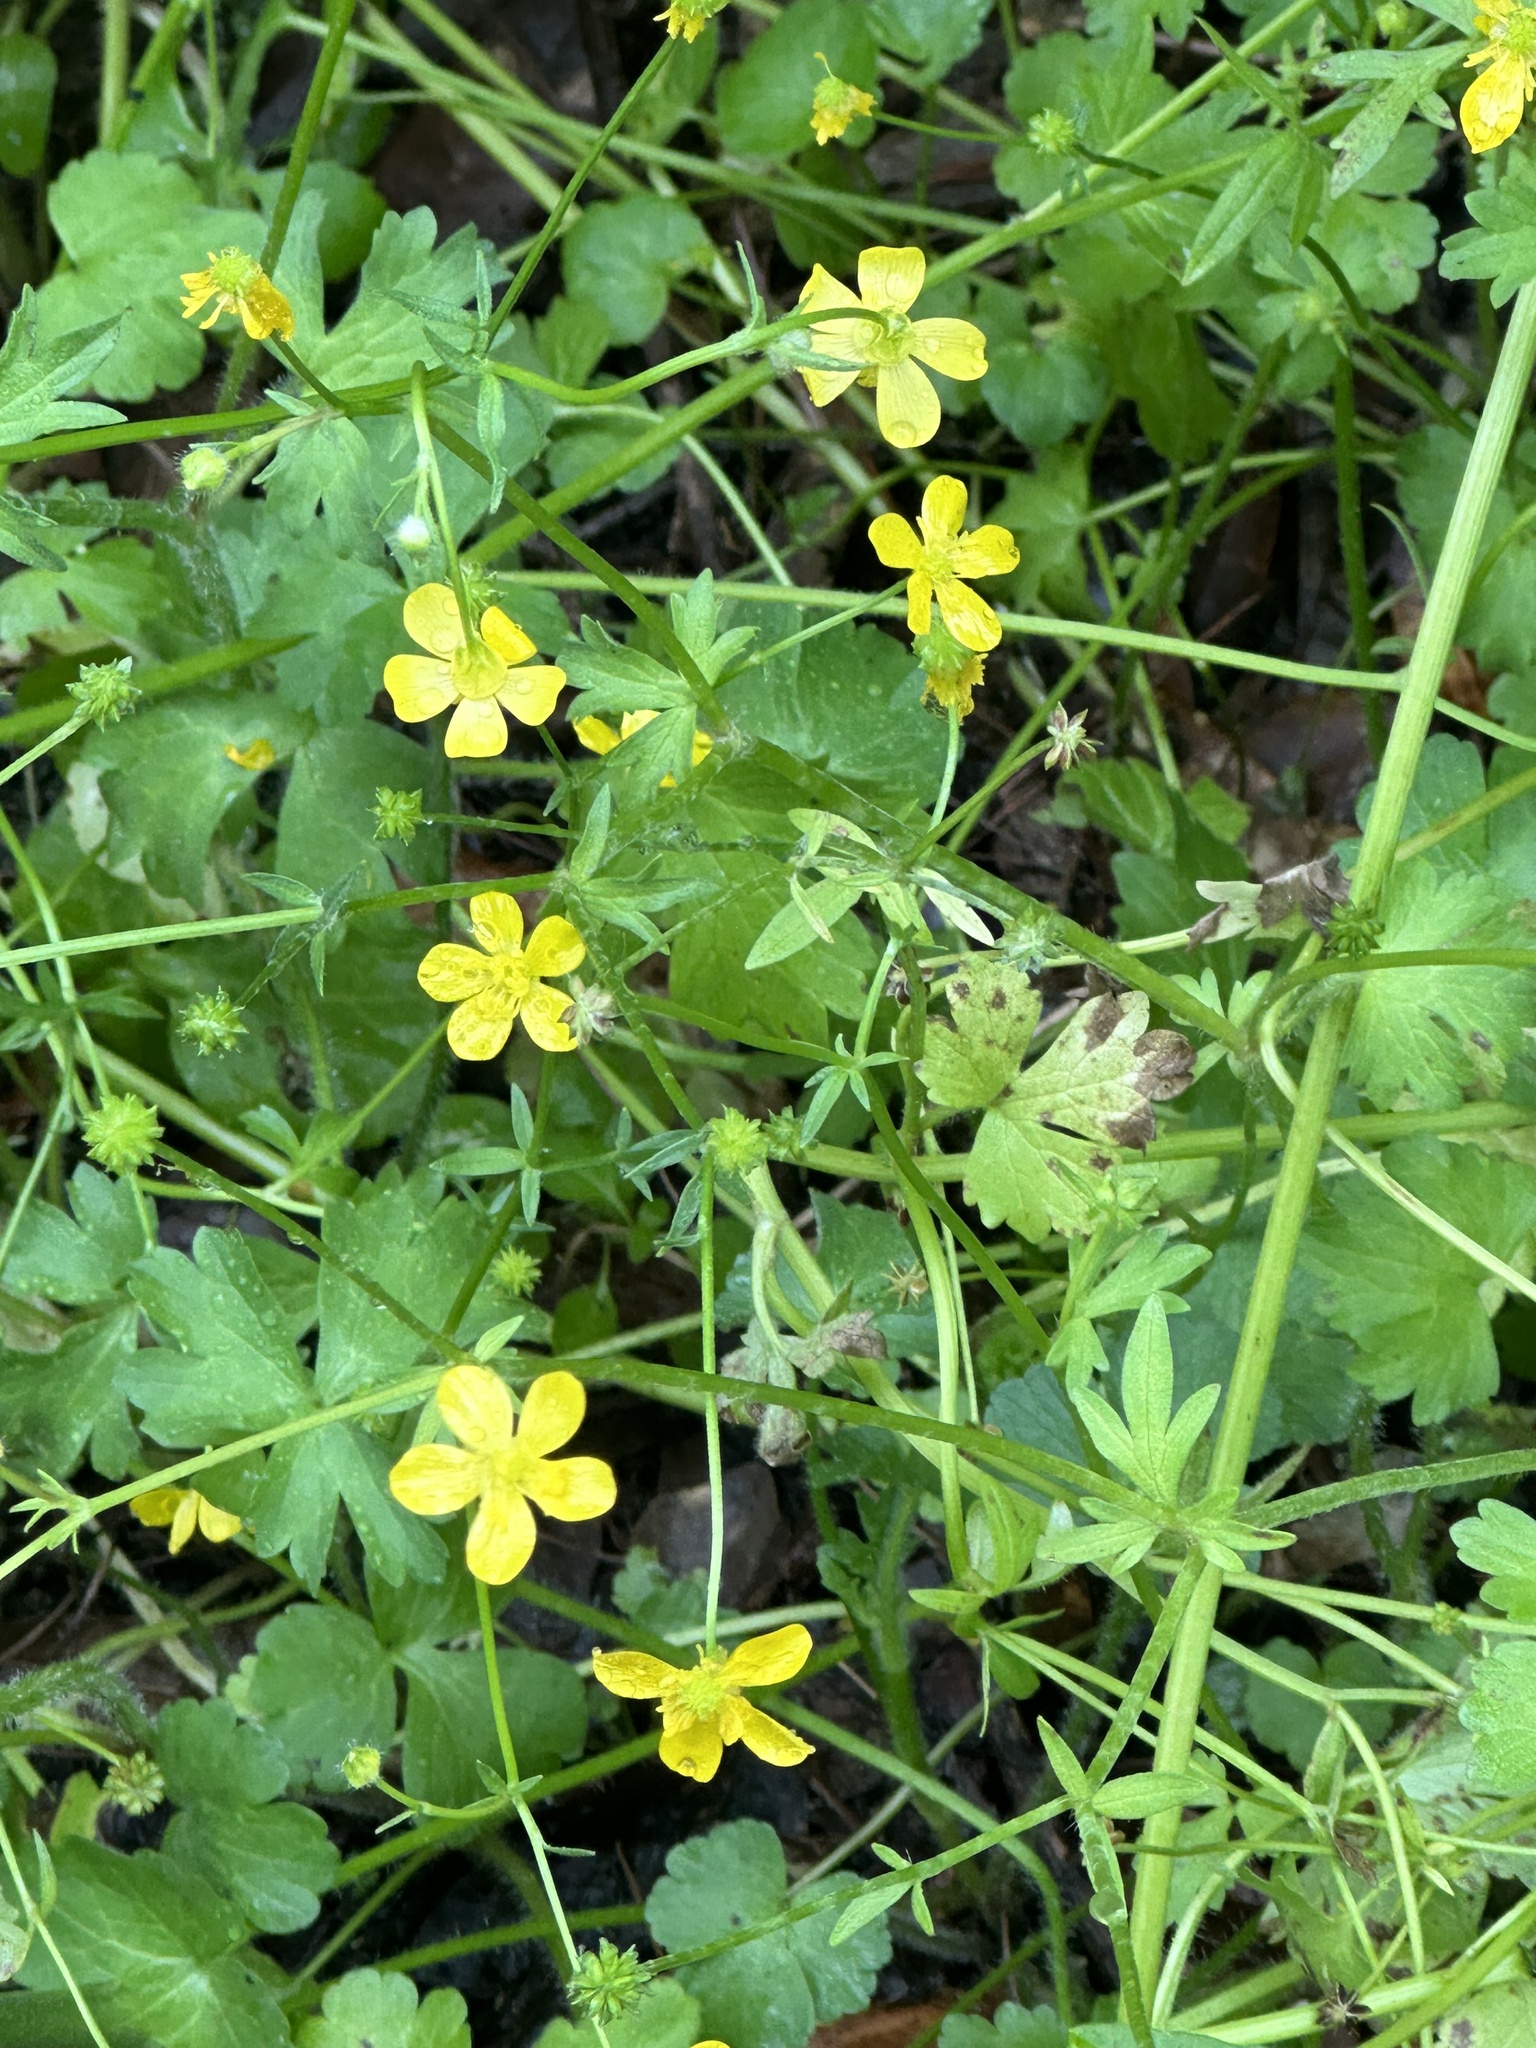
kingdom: Plantae
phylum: Tracheophyta
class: Magnoliopsida
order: Ranunculales
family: Ranunculaceae
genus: Ranunculus
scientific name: Ranunculus muricatus
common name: Rough-fruited buttercup
